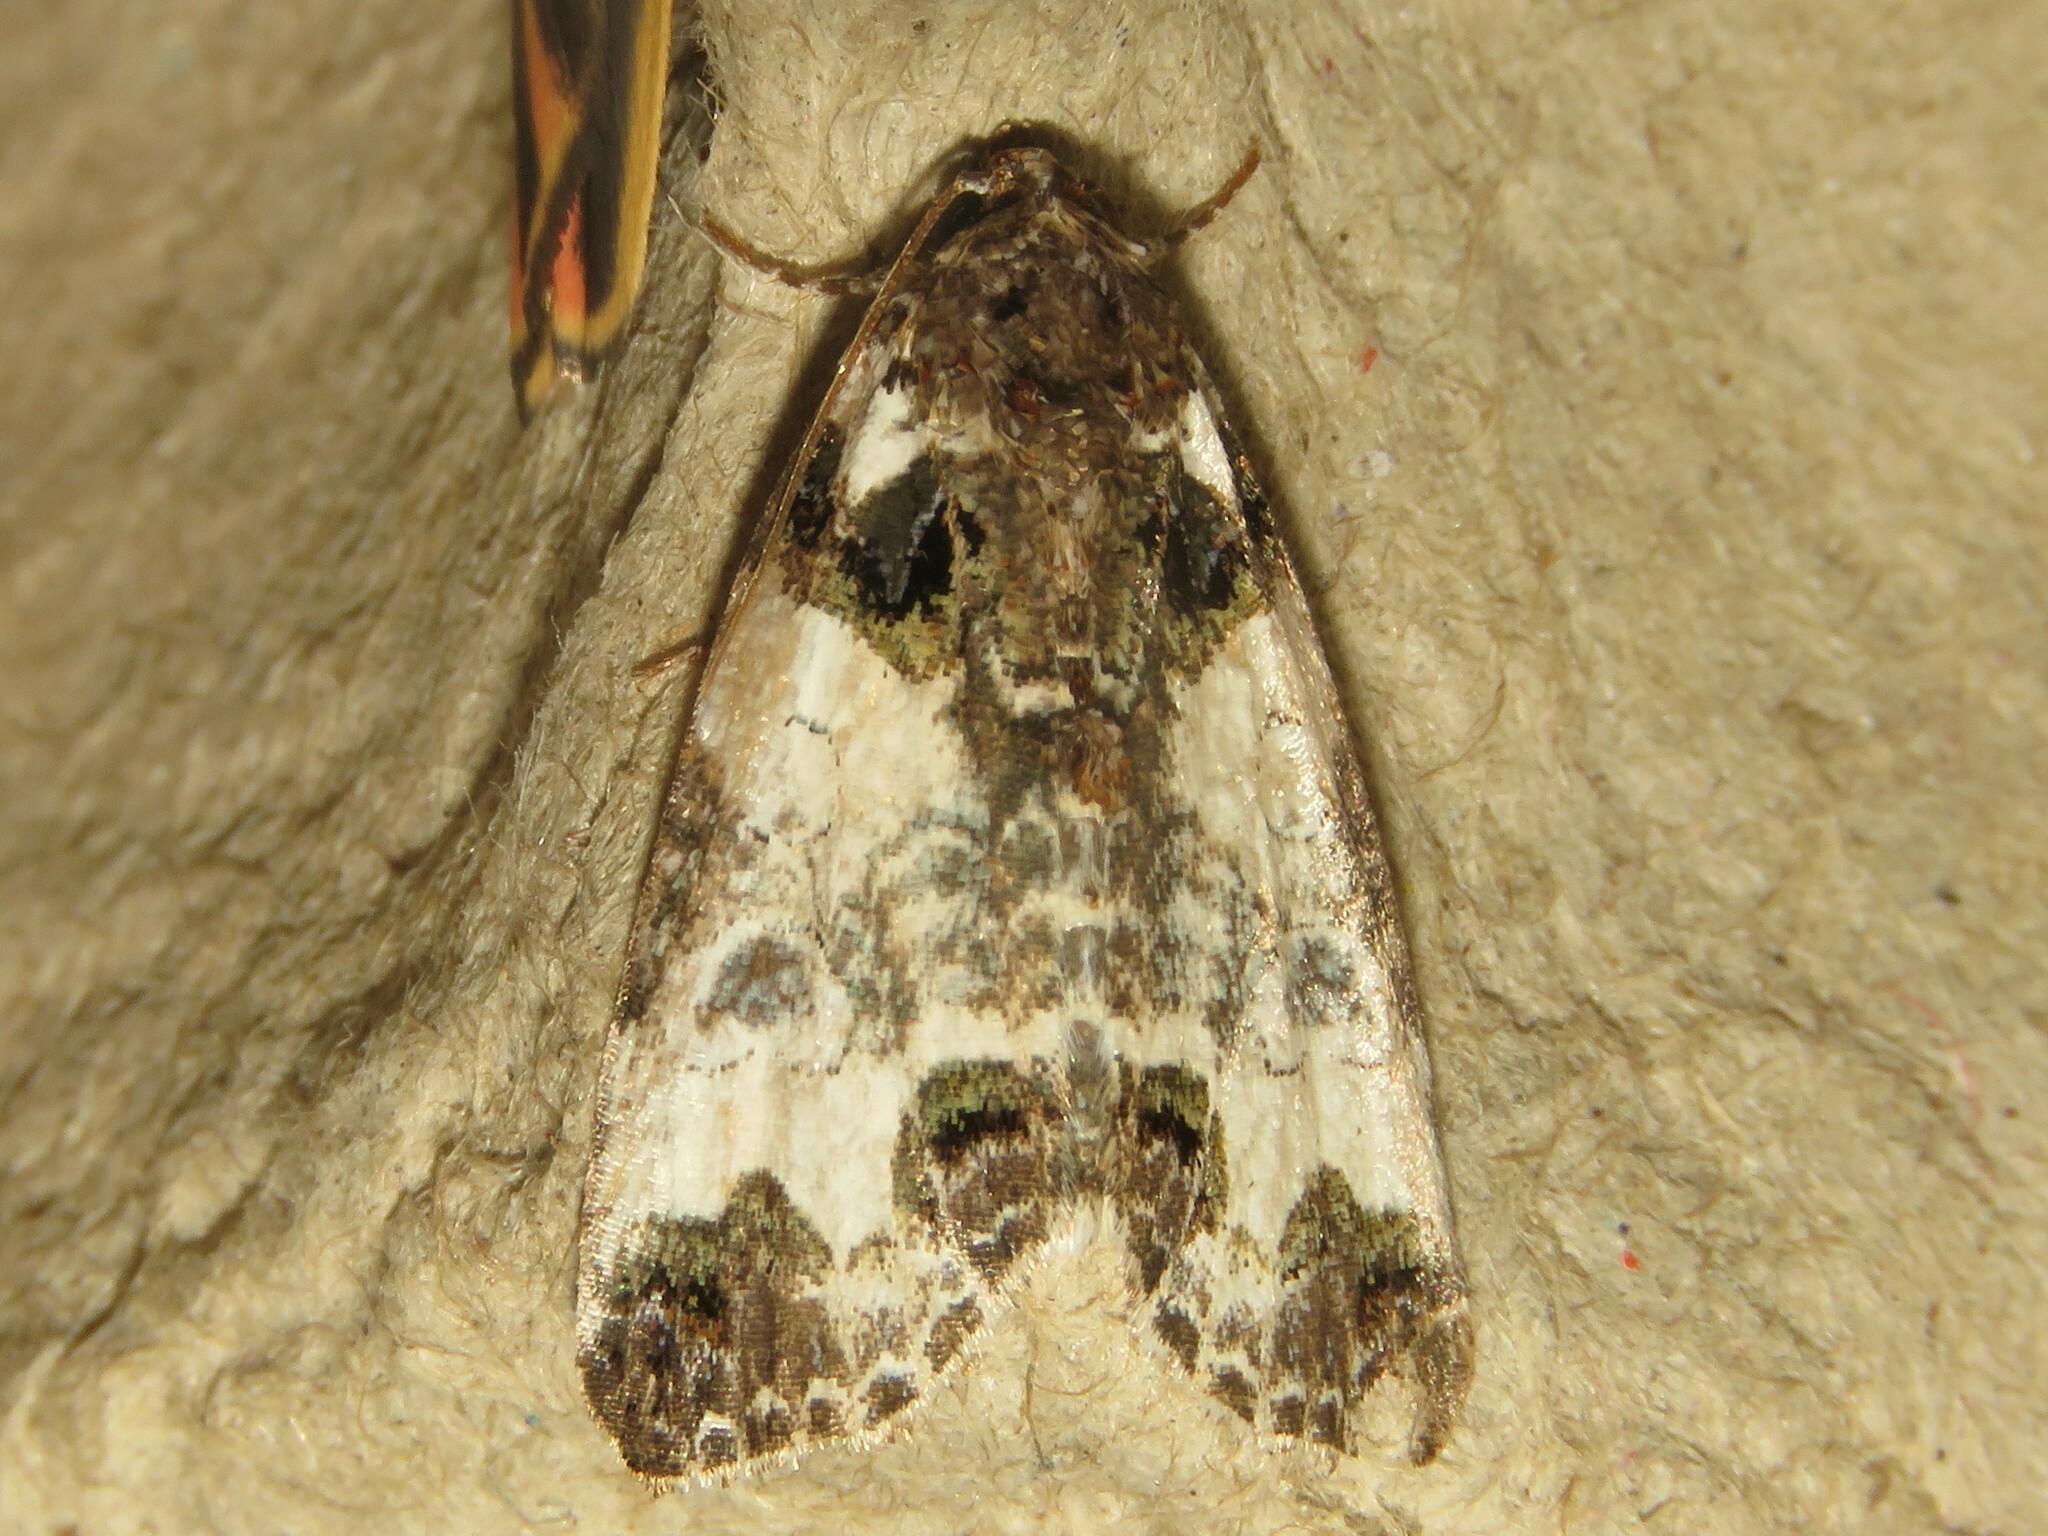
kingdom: Animalia
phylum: Arthropoda
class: Insecta
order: Lepidoptera
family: Noctuidae
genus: Cerma
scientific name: Cerma cerintha
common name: Tufted bird-dropping moth
